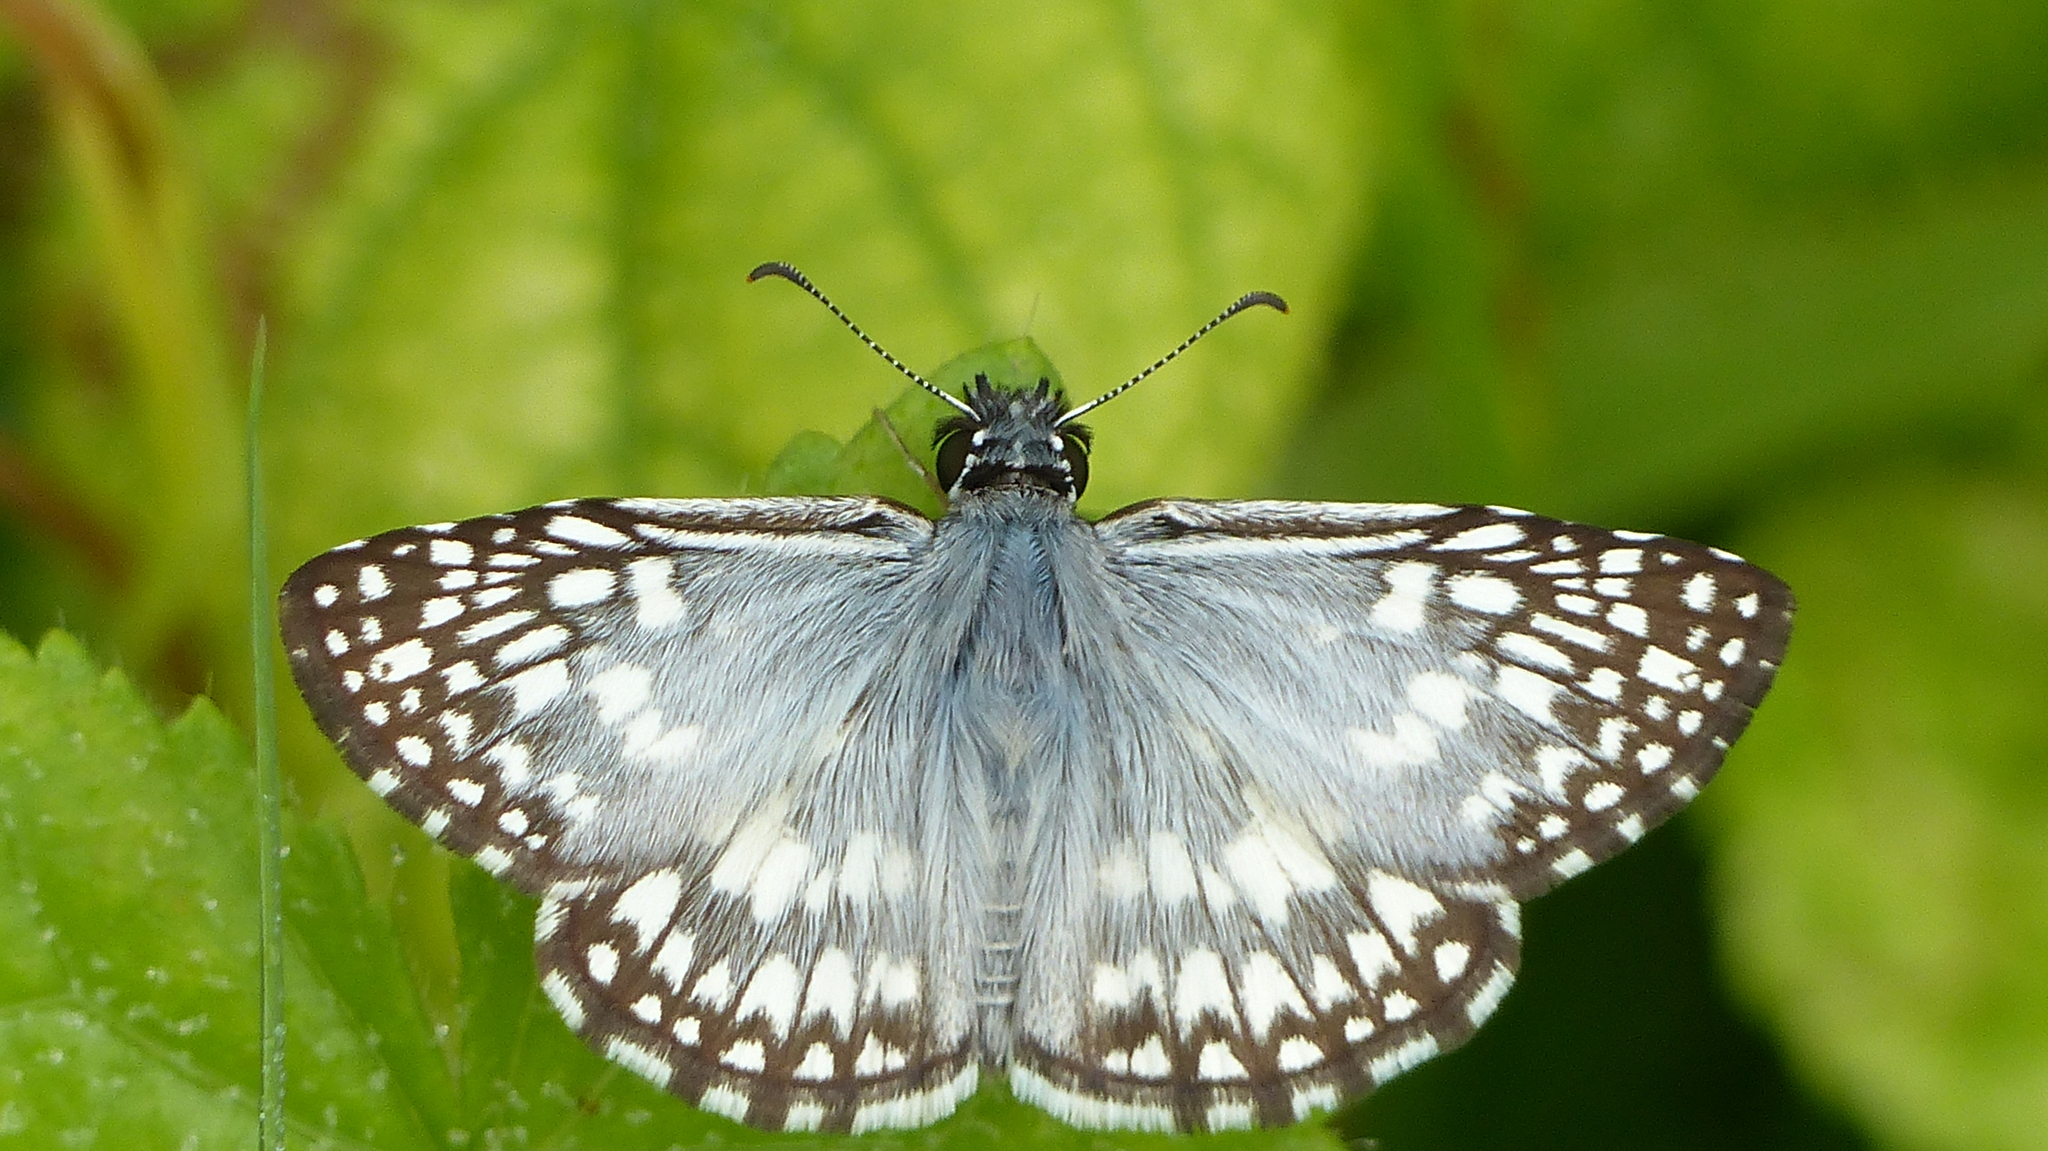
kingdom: Animalia
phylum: Arthropoda
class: Insecta
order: Lepidoptera
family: Hesperiidae
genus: Pyrgus
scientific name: Pyrgus oileus
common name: Tropical checkered-skipper
